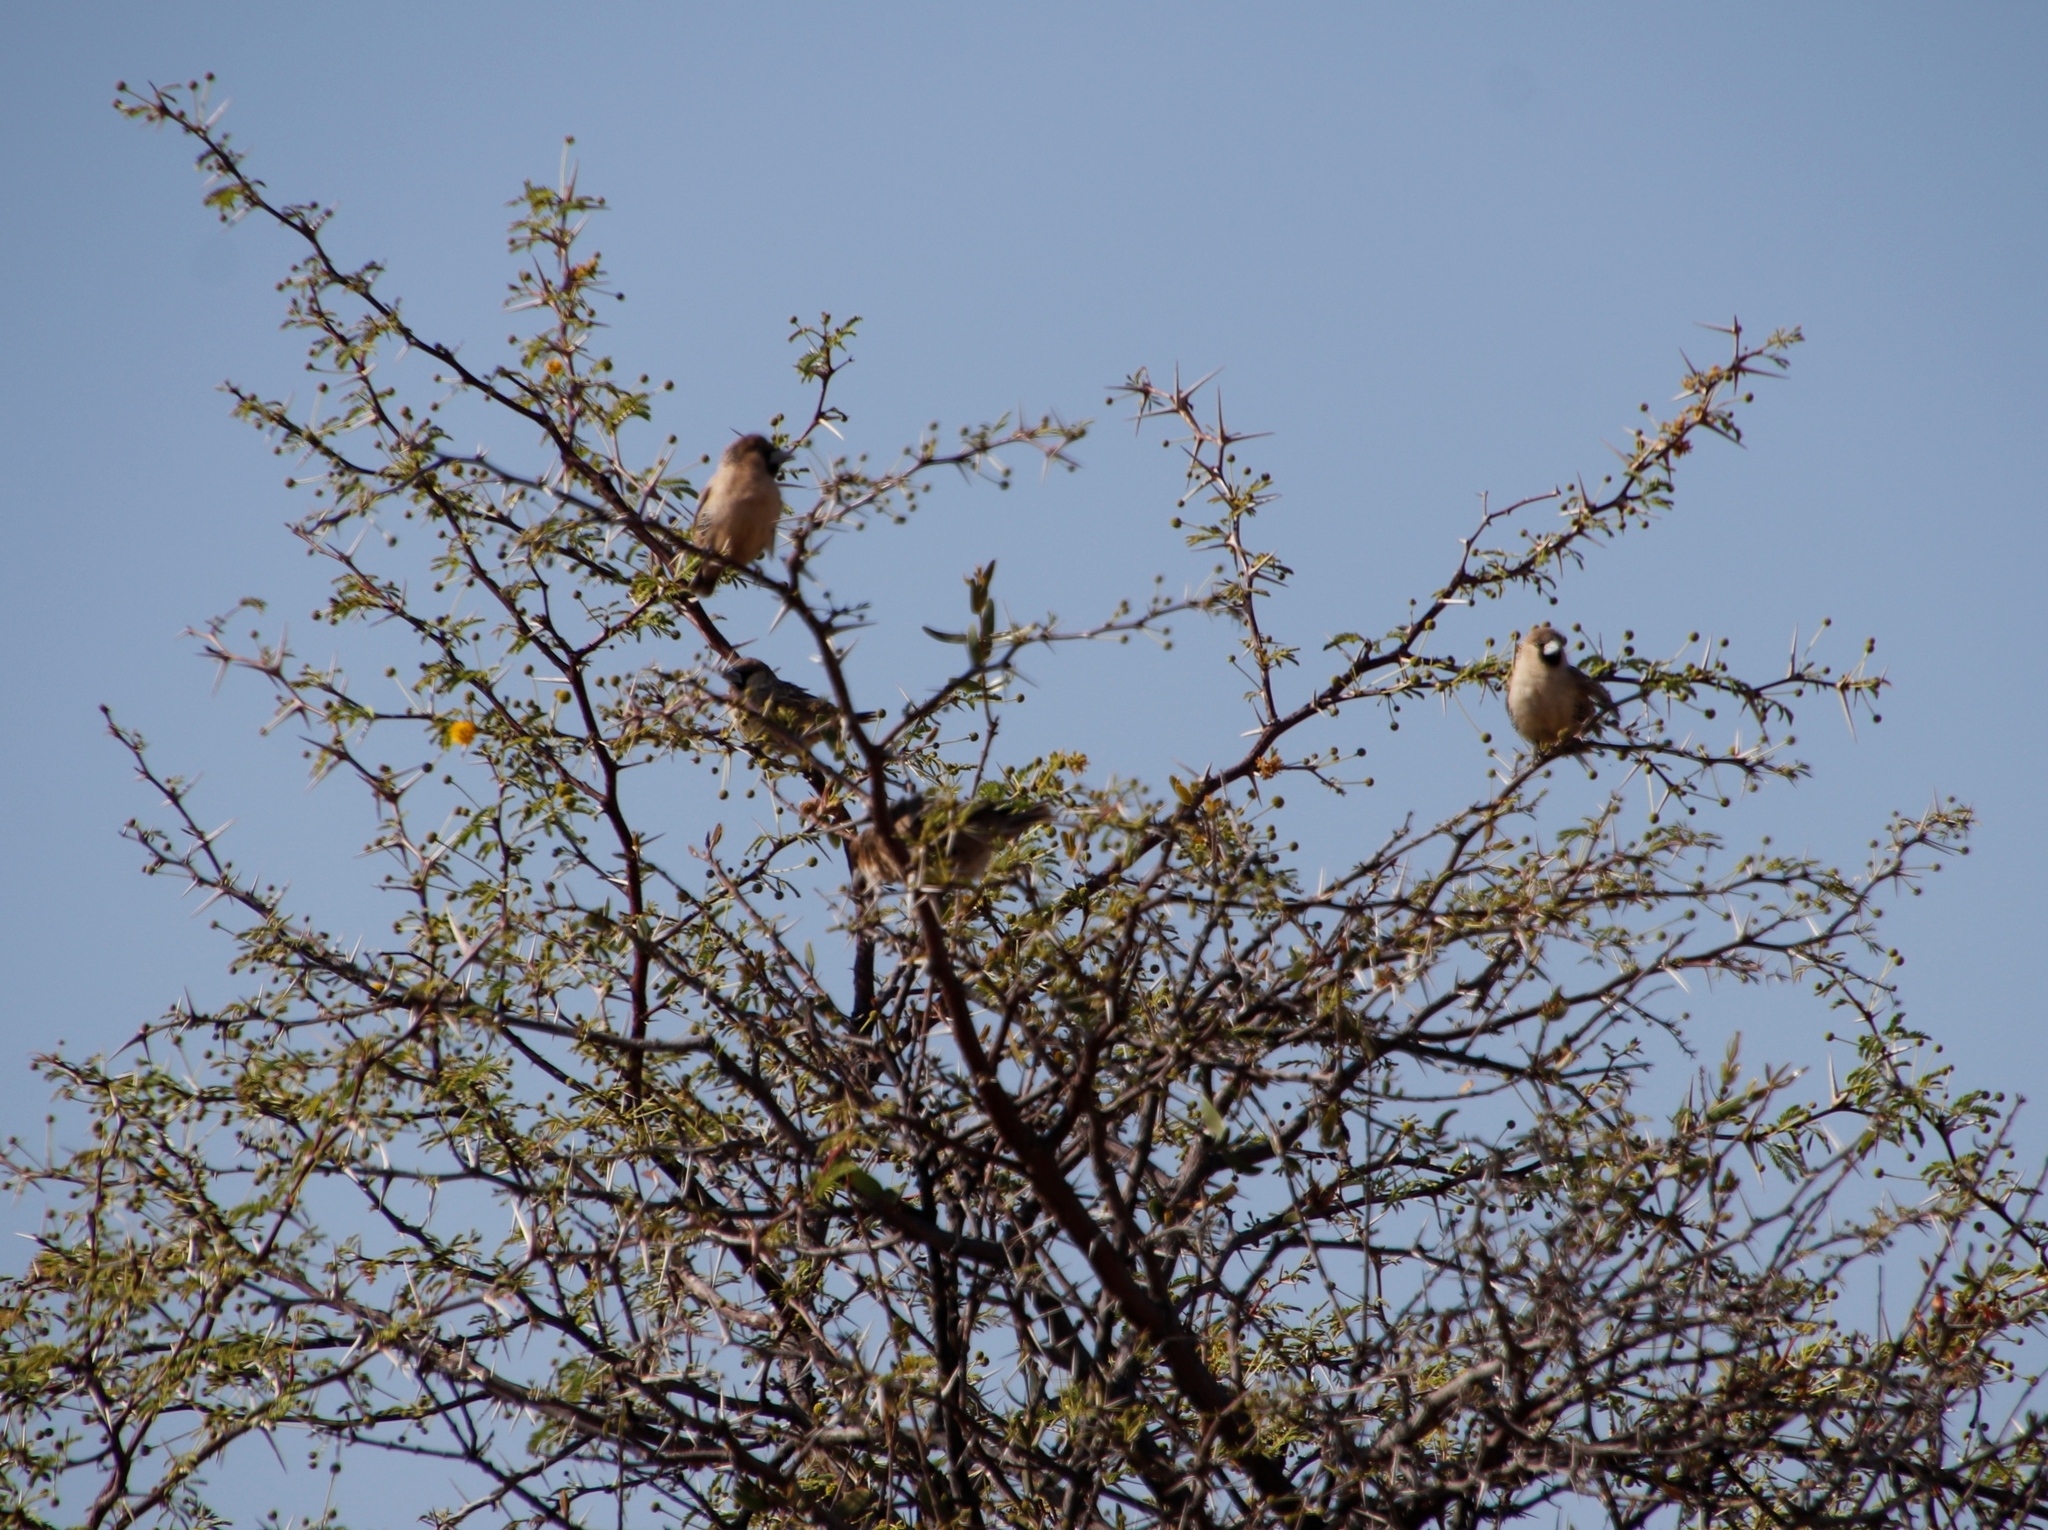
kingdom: Animalia
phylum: Chordata
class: Aves
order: Passeriformes
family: Passeridae
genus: Philetairus
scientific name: Philetairus socius
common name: Sociable weaver
